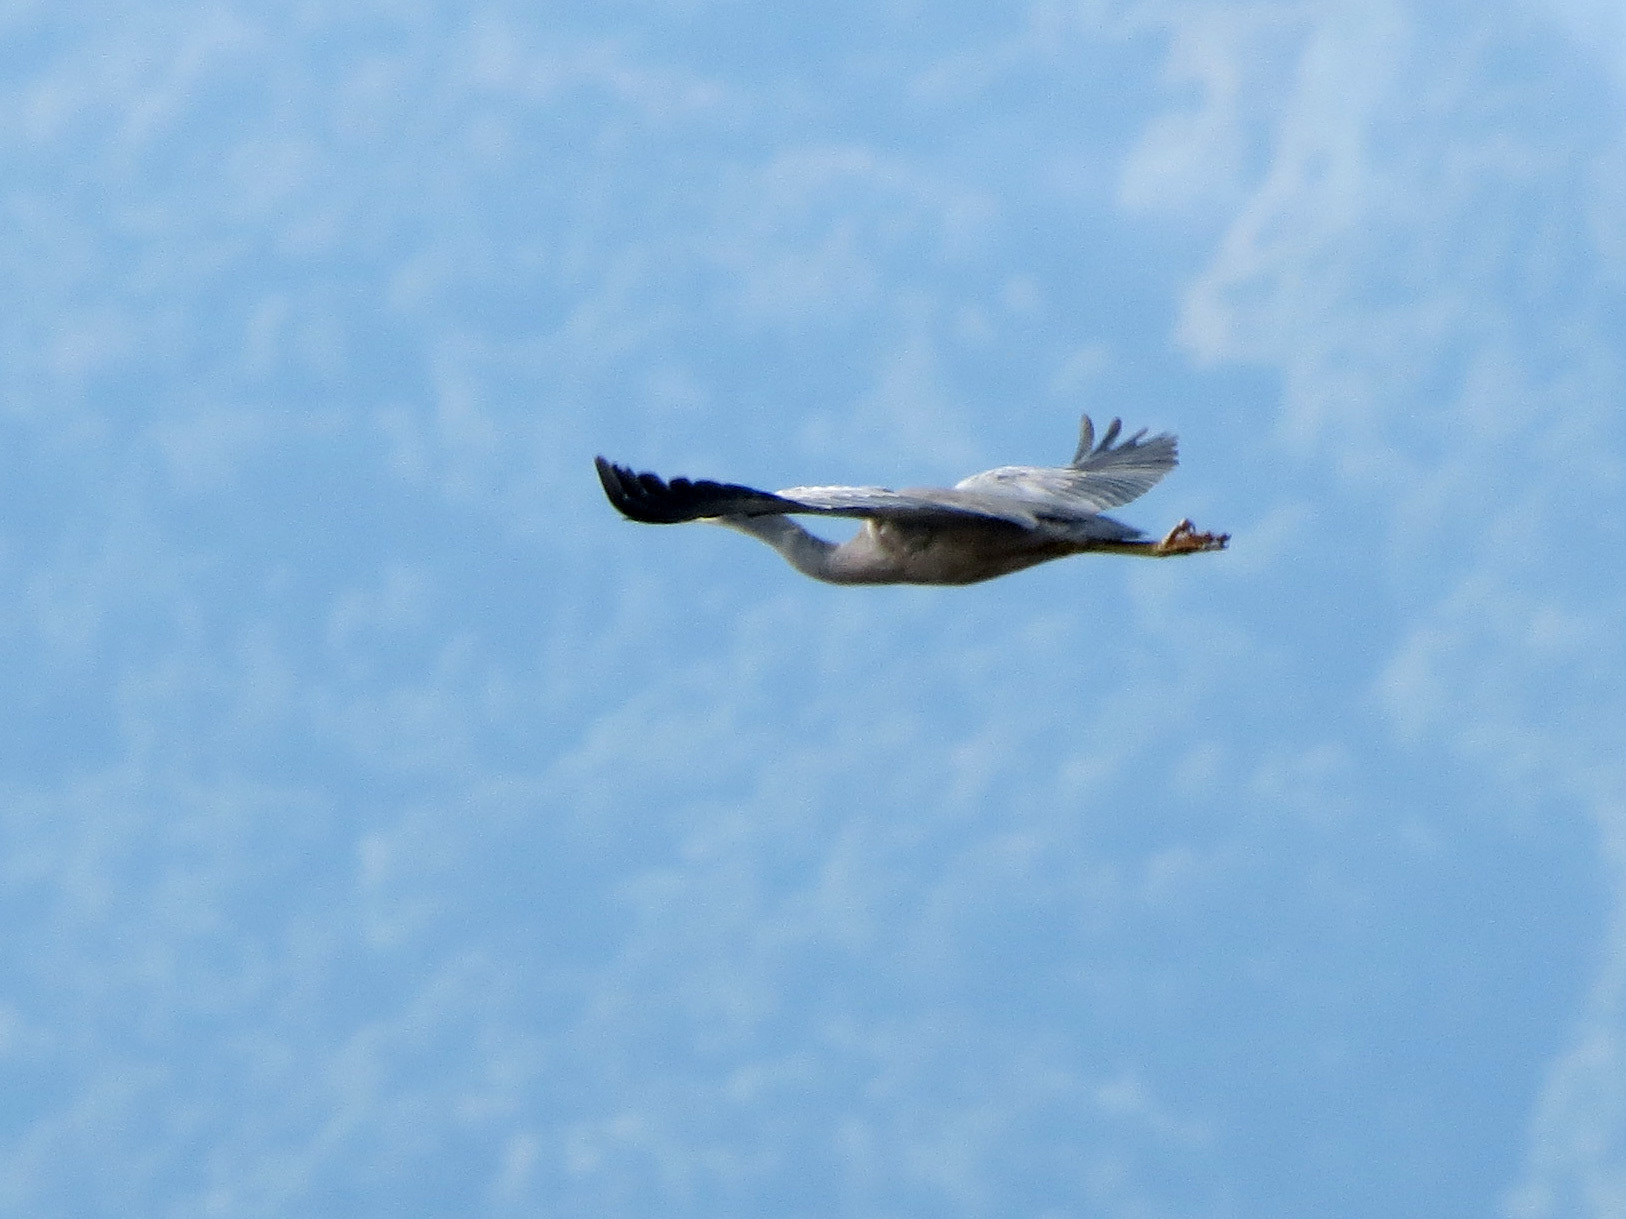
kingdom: Animalia
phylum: Chordata
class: Aves
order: Pelecaniformes
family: Ardeidae
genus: Egretta
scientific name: Egretta novaehollandiae
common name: White-faced heron
